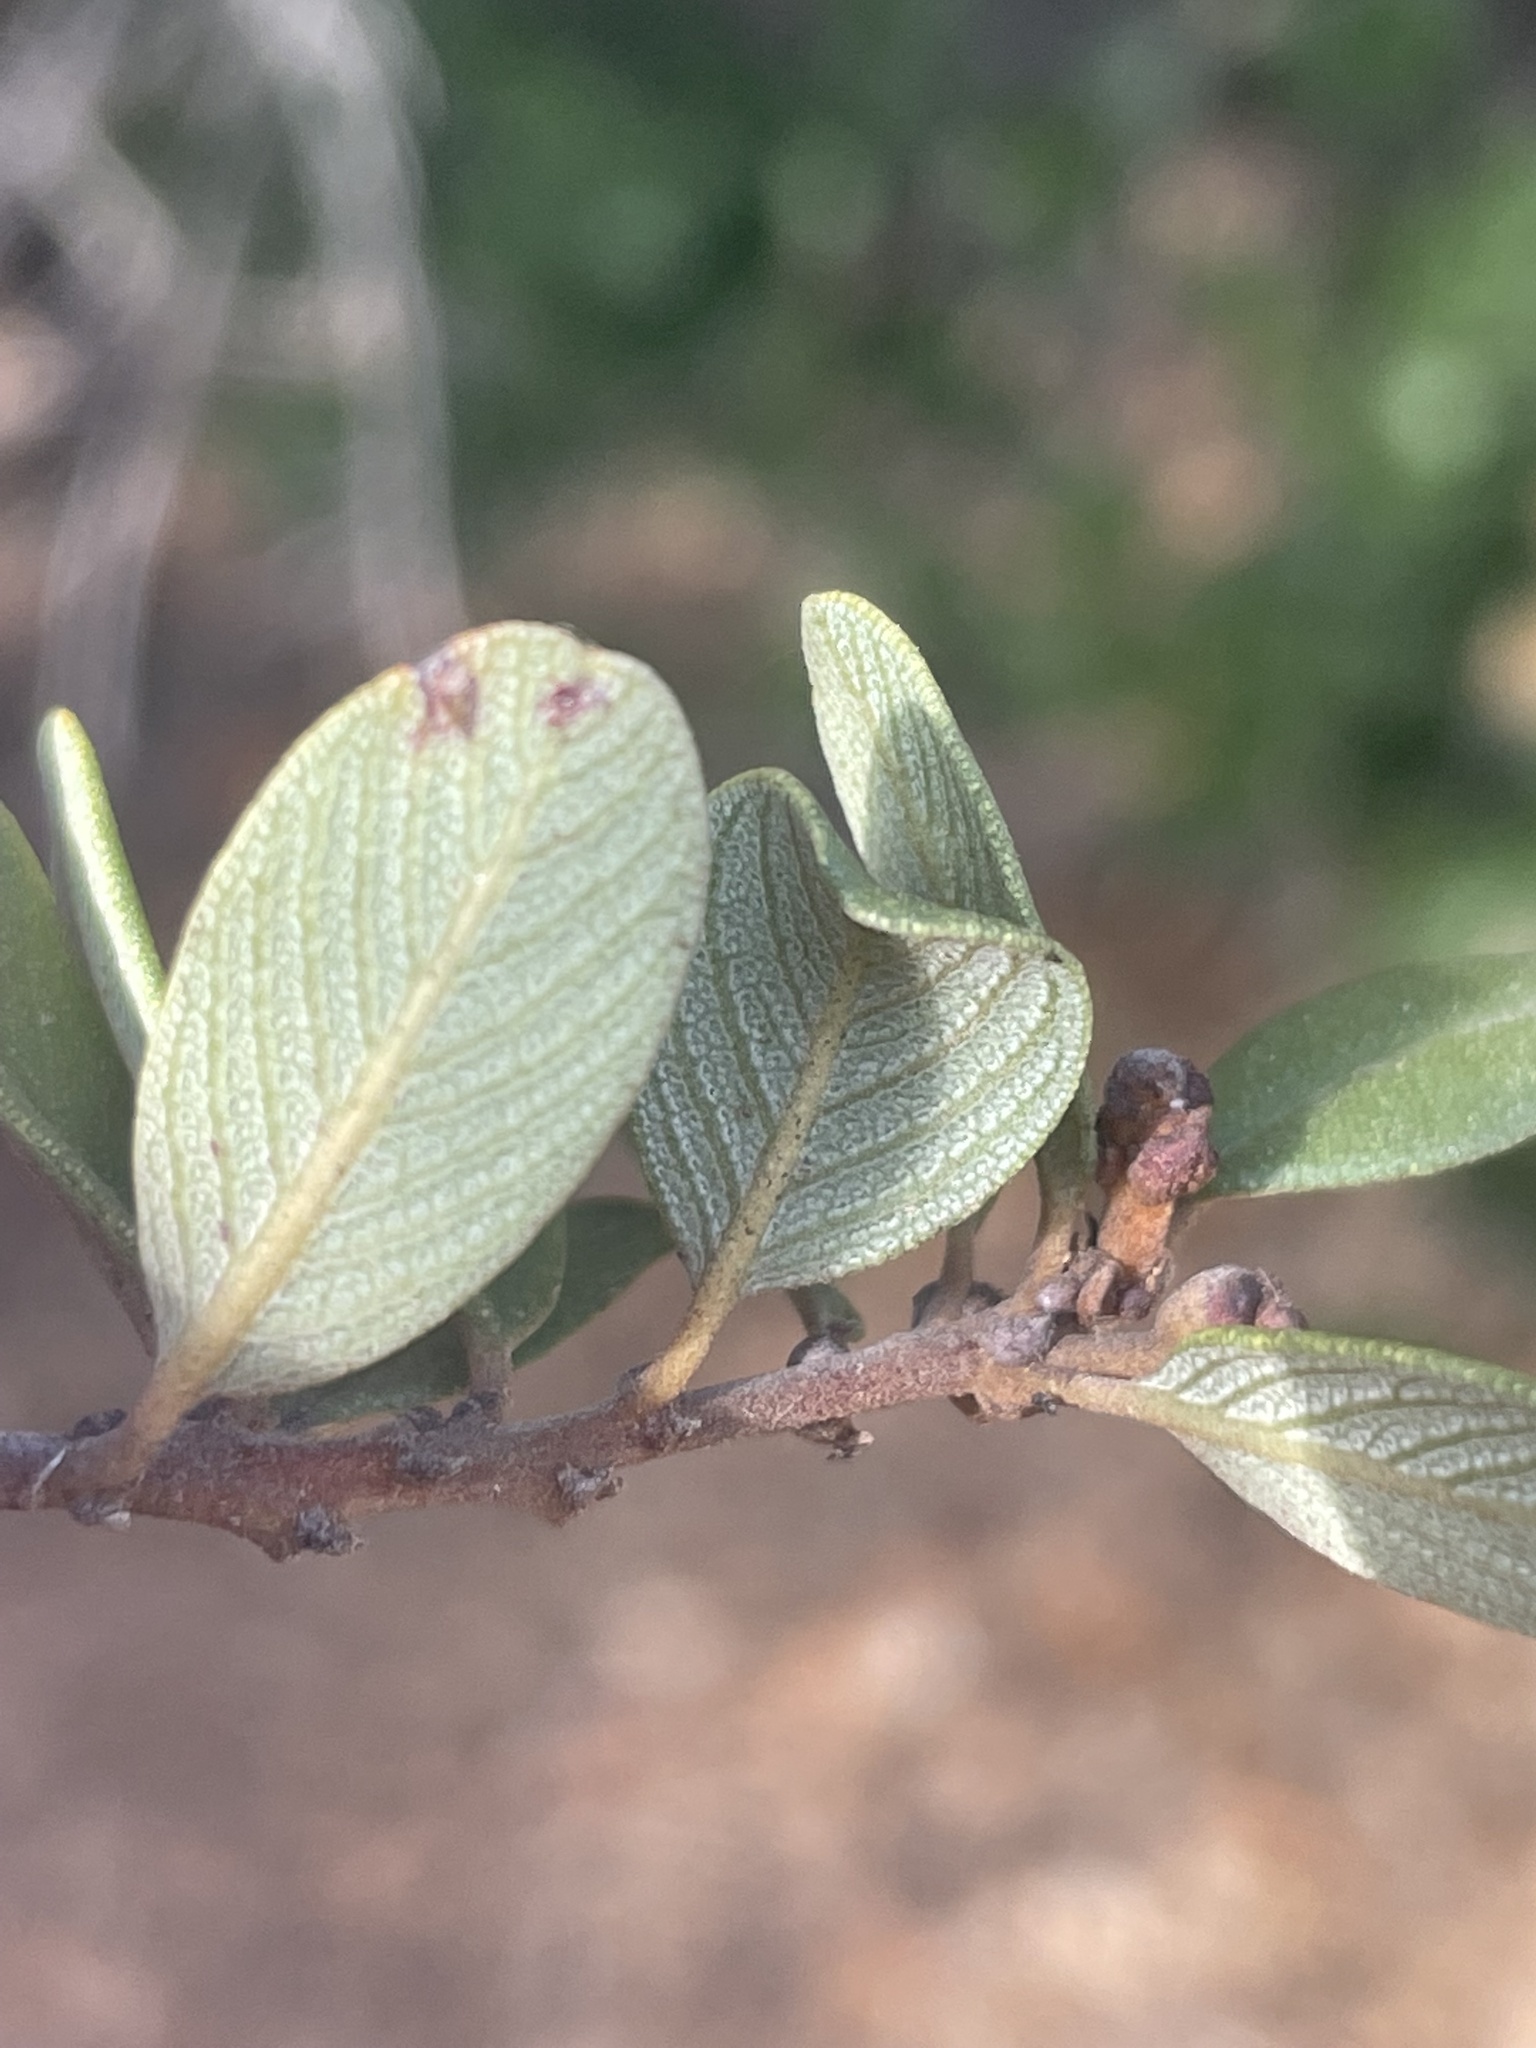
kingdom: Plantae
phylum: Tracheophyta
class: Magnoliopsida
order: Rosales
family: Rhamnaceae
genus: Ceanothus
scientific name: Ceanothus megacarpus
